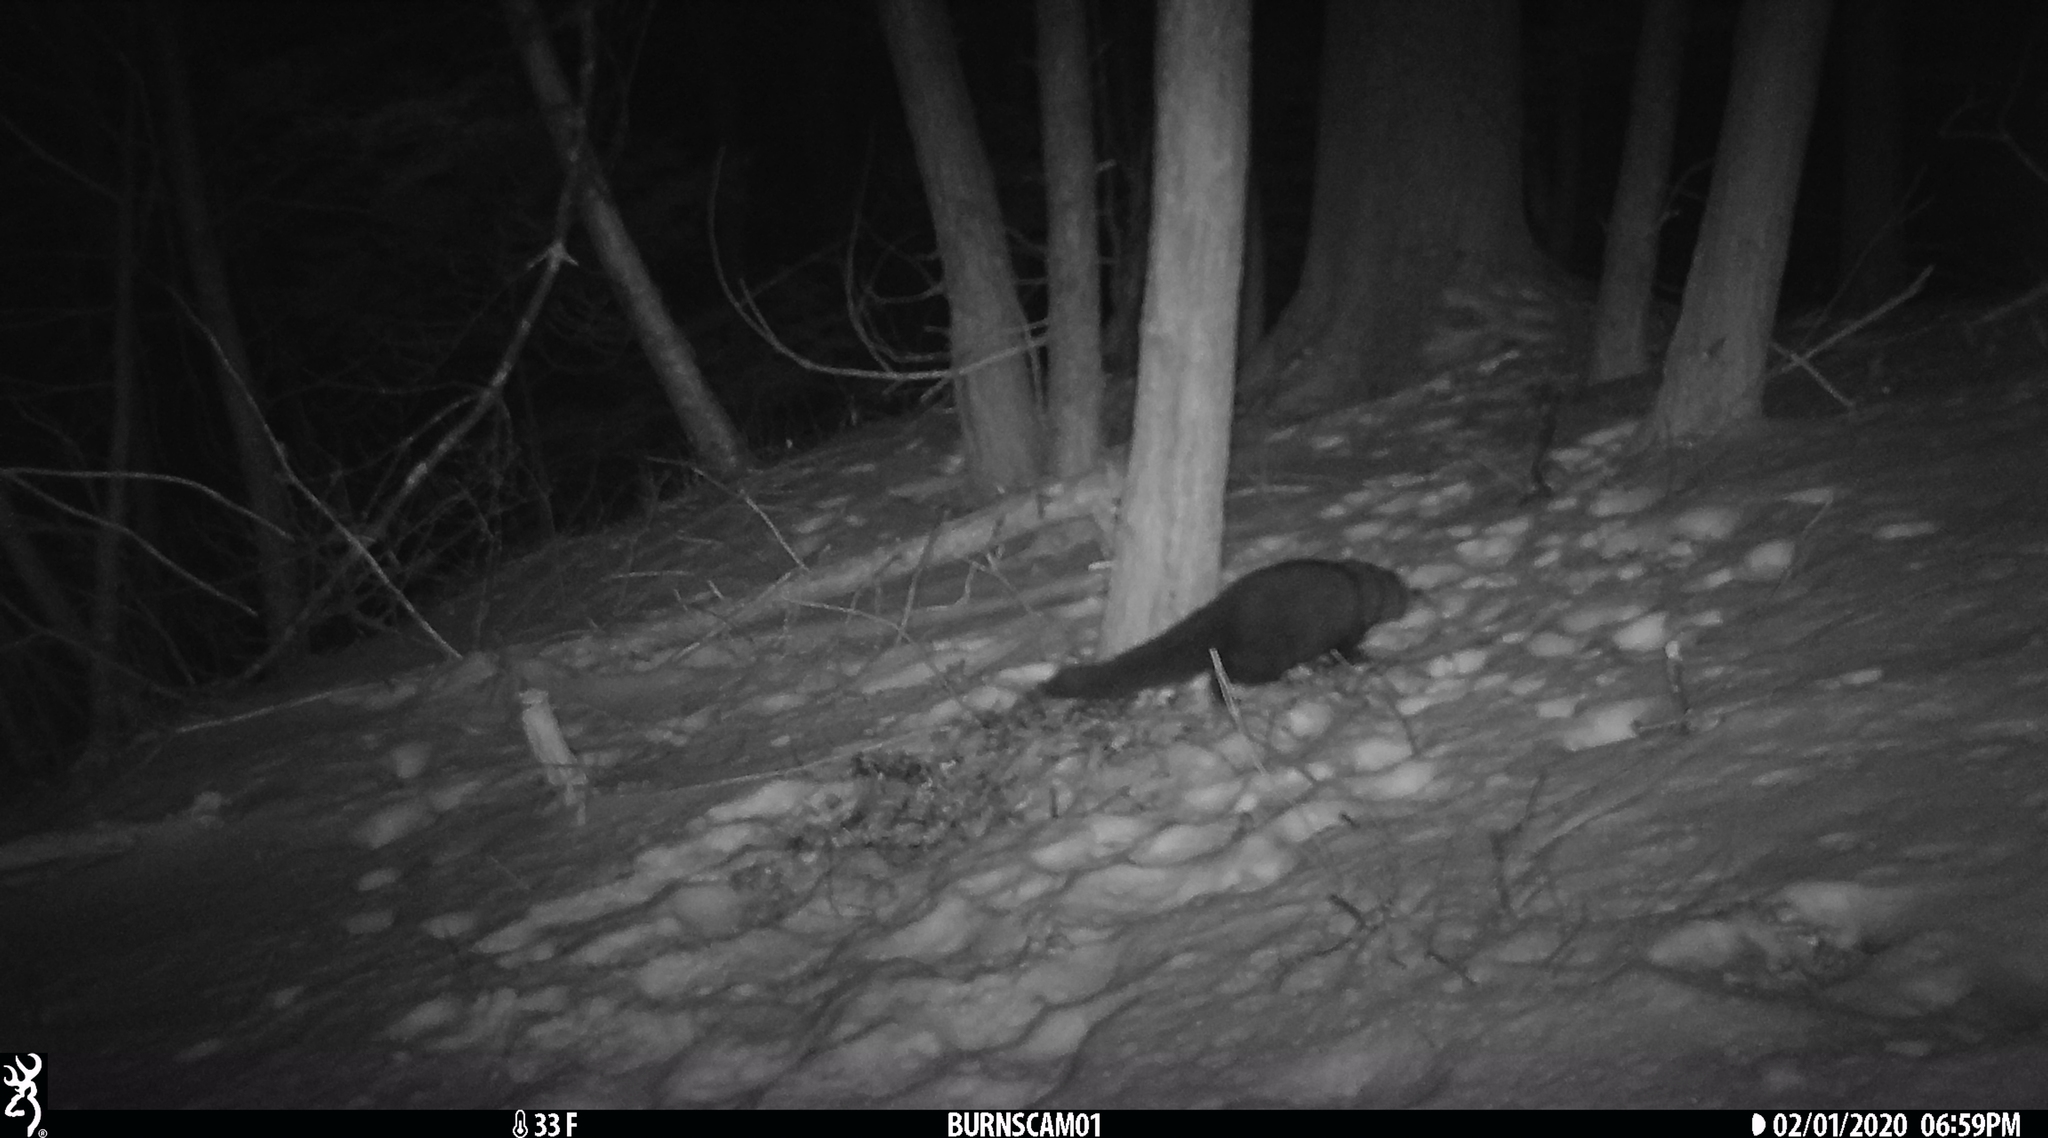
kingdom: Animalia
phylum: Chordata
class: Mammalia
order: Carnivora
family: Mustelidae
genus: Pekania
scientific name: Pekania pennanti
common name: Fisher
